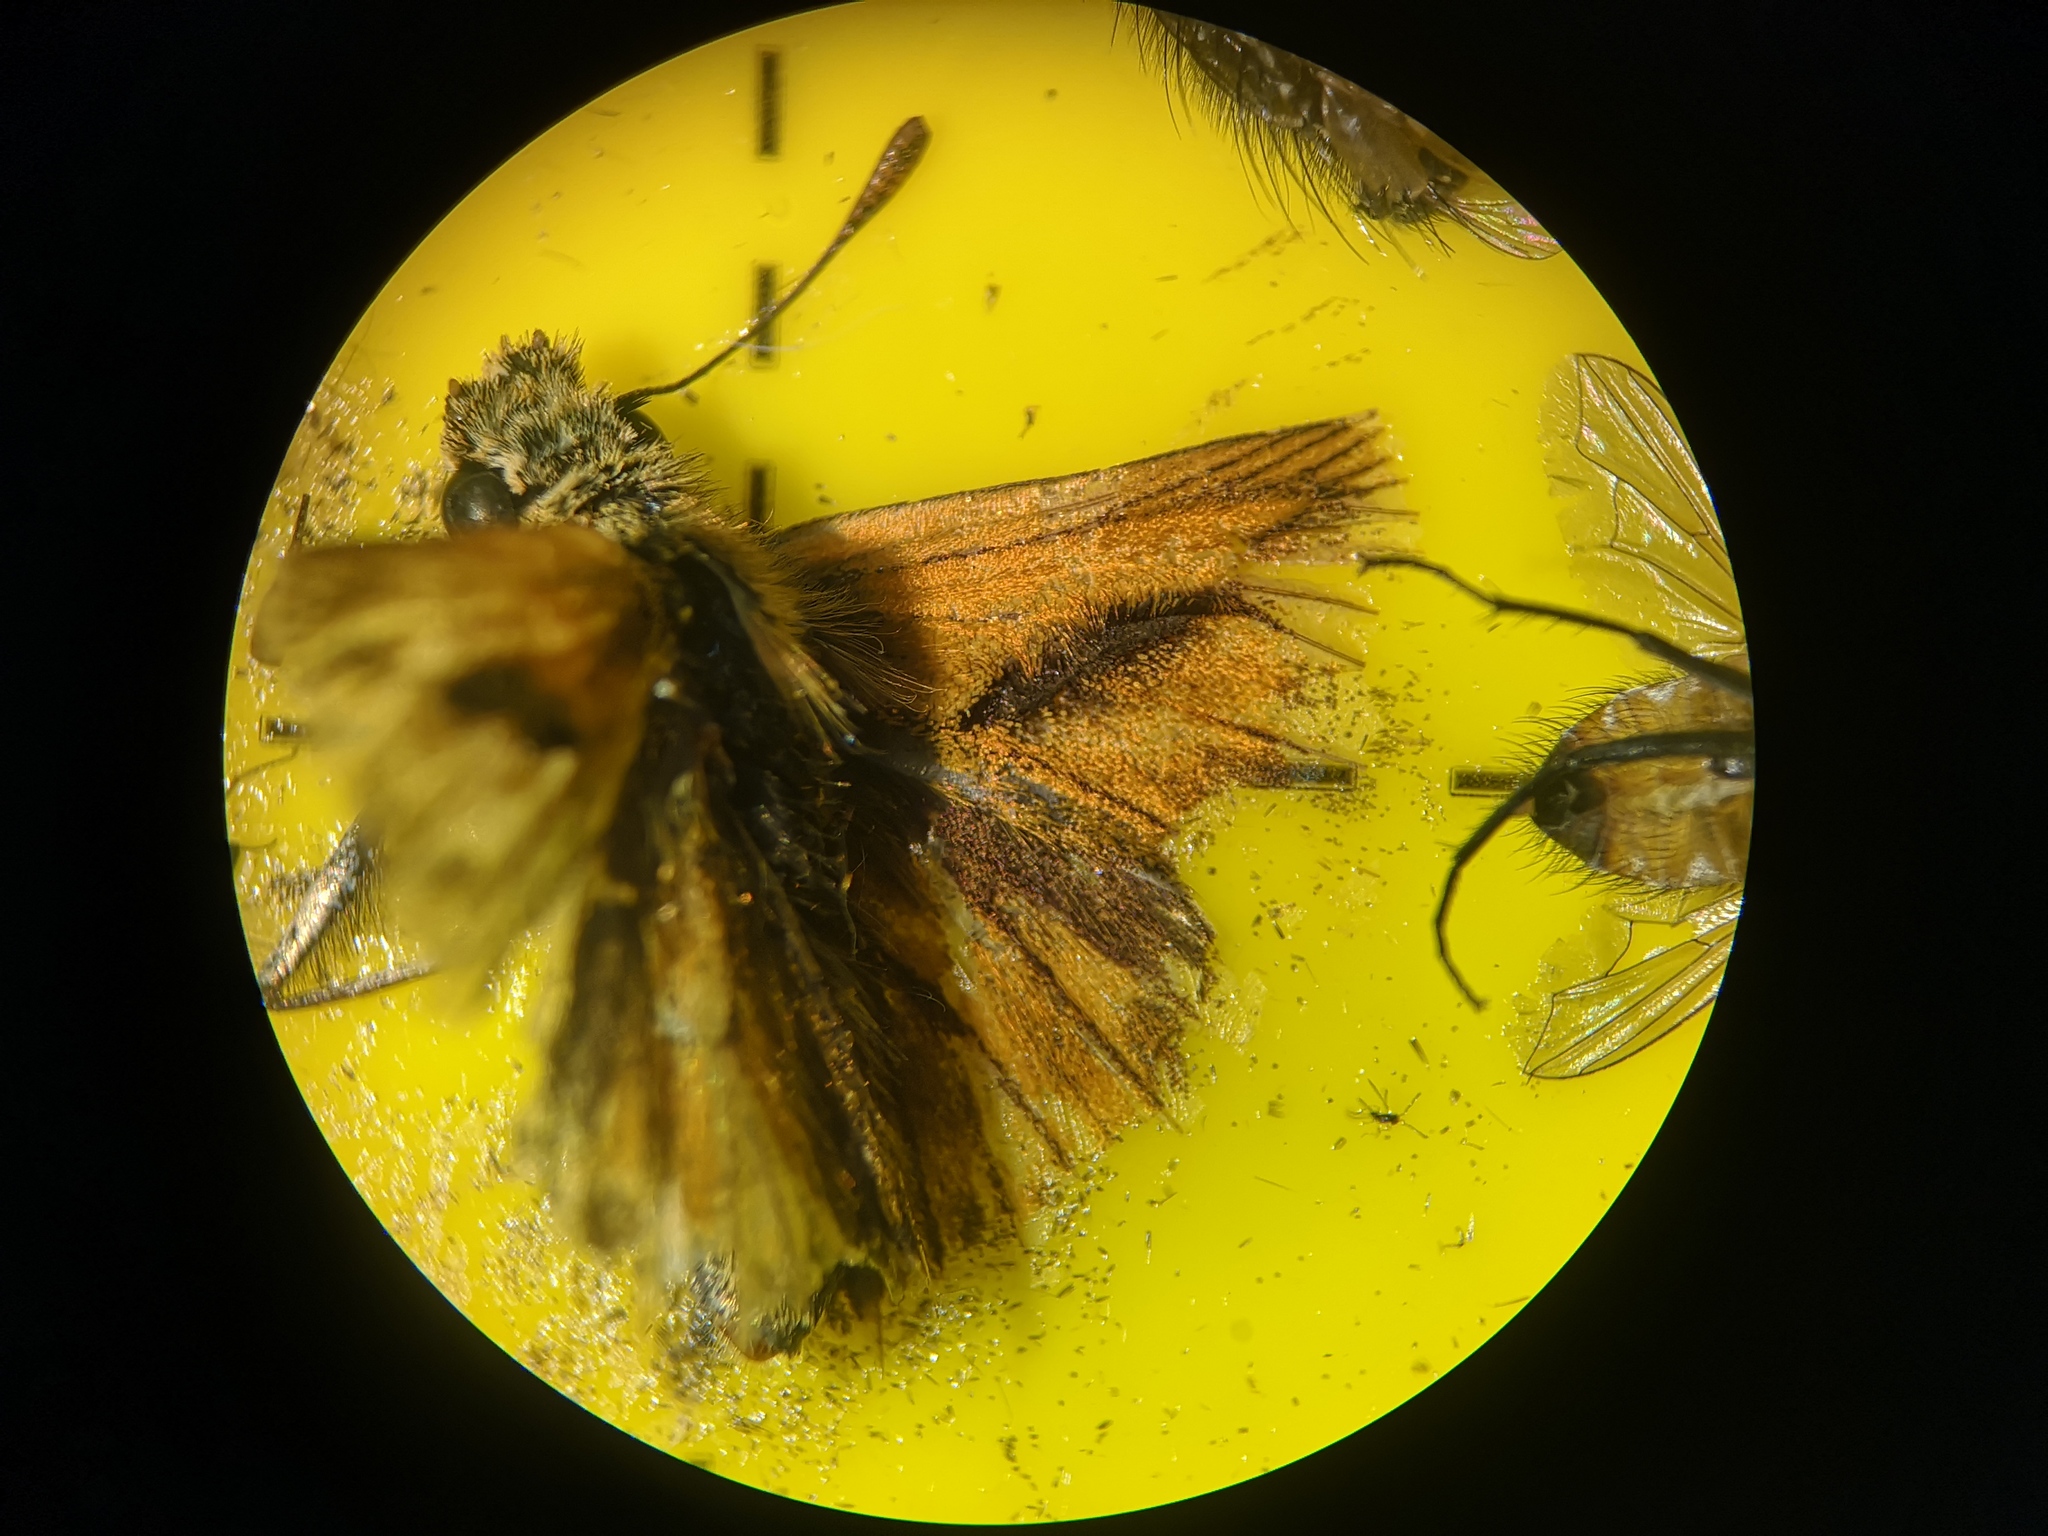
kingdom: Animalia
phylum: Arthropoda
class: Insecta
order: Lepidoptera
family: Hesperiidae
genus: Ochlodes
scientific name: Ochlodes venata
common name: Large skipper
